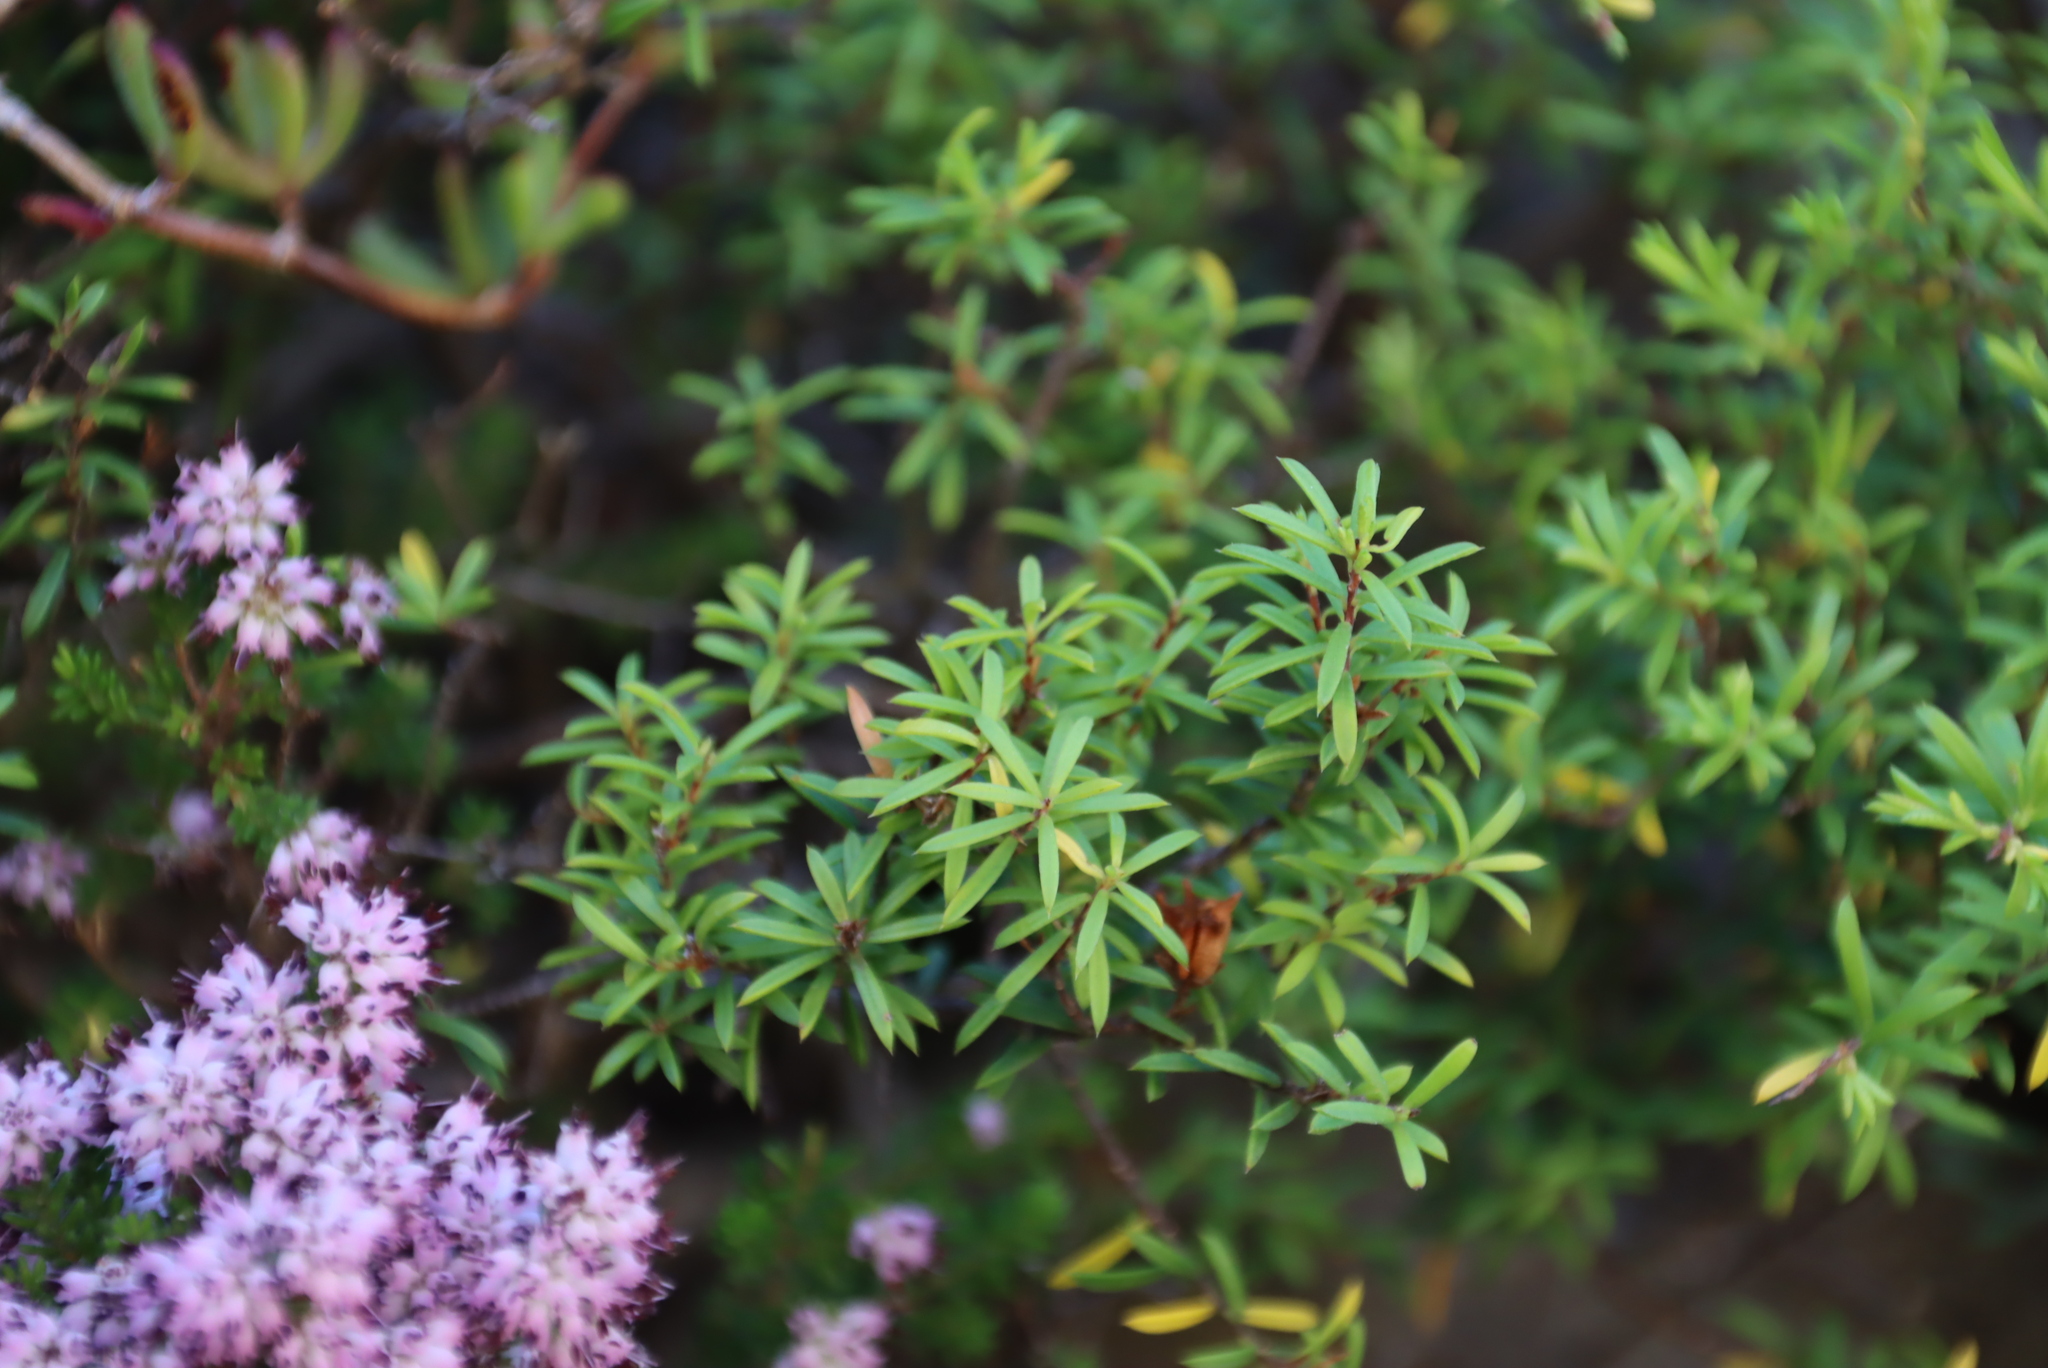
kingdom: Plantae
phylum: Tracheophyta
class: Magnoliopsida
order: Sapindales
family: Rutaceae
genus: Coleonema
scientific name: Coleonema album
